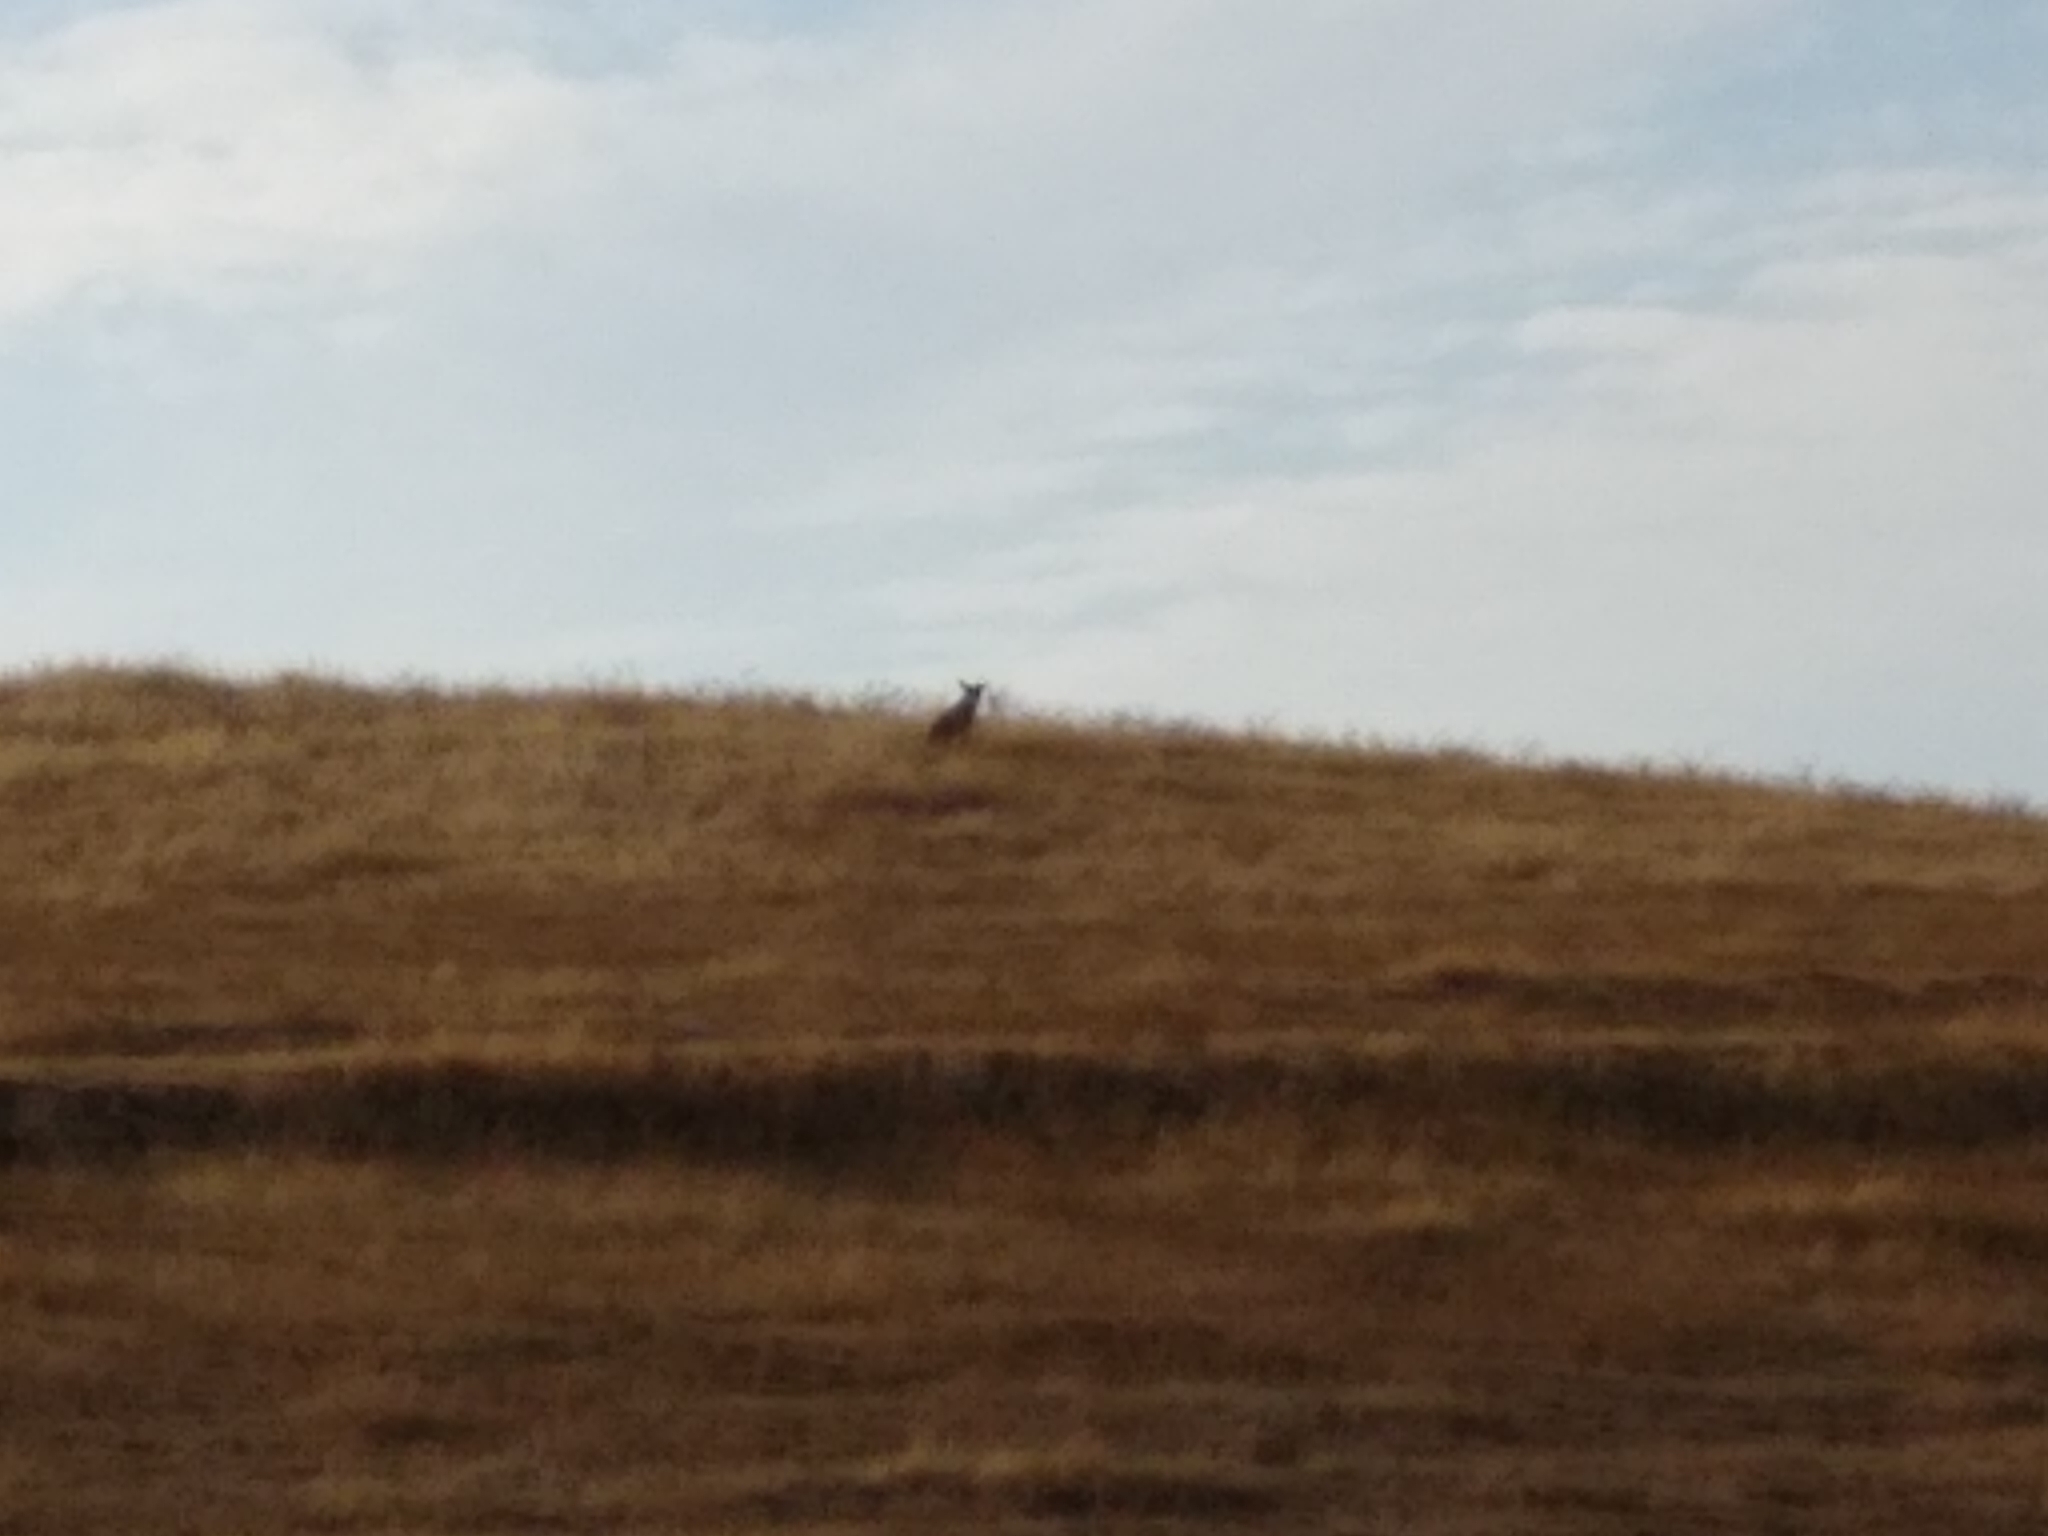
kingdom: Animalia
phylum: Chordata
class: Mammalia
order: Carnivora
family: Canidae
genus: Canis
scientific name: Canis latrans
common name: Coyote
